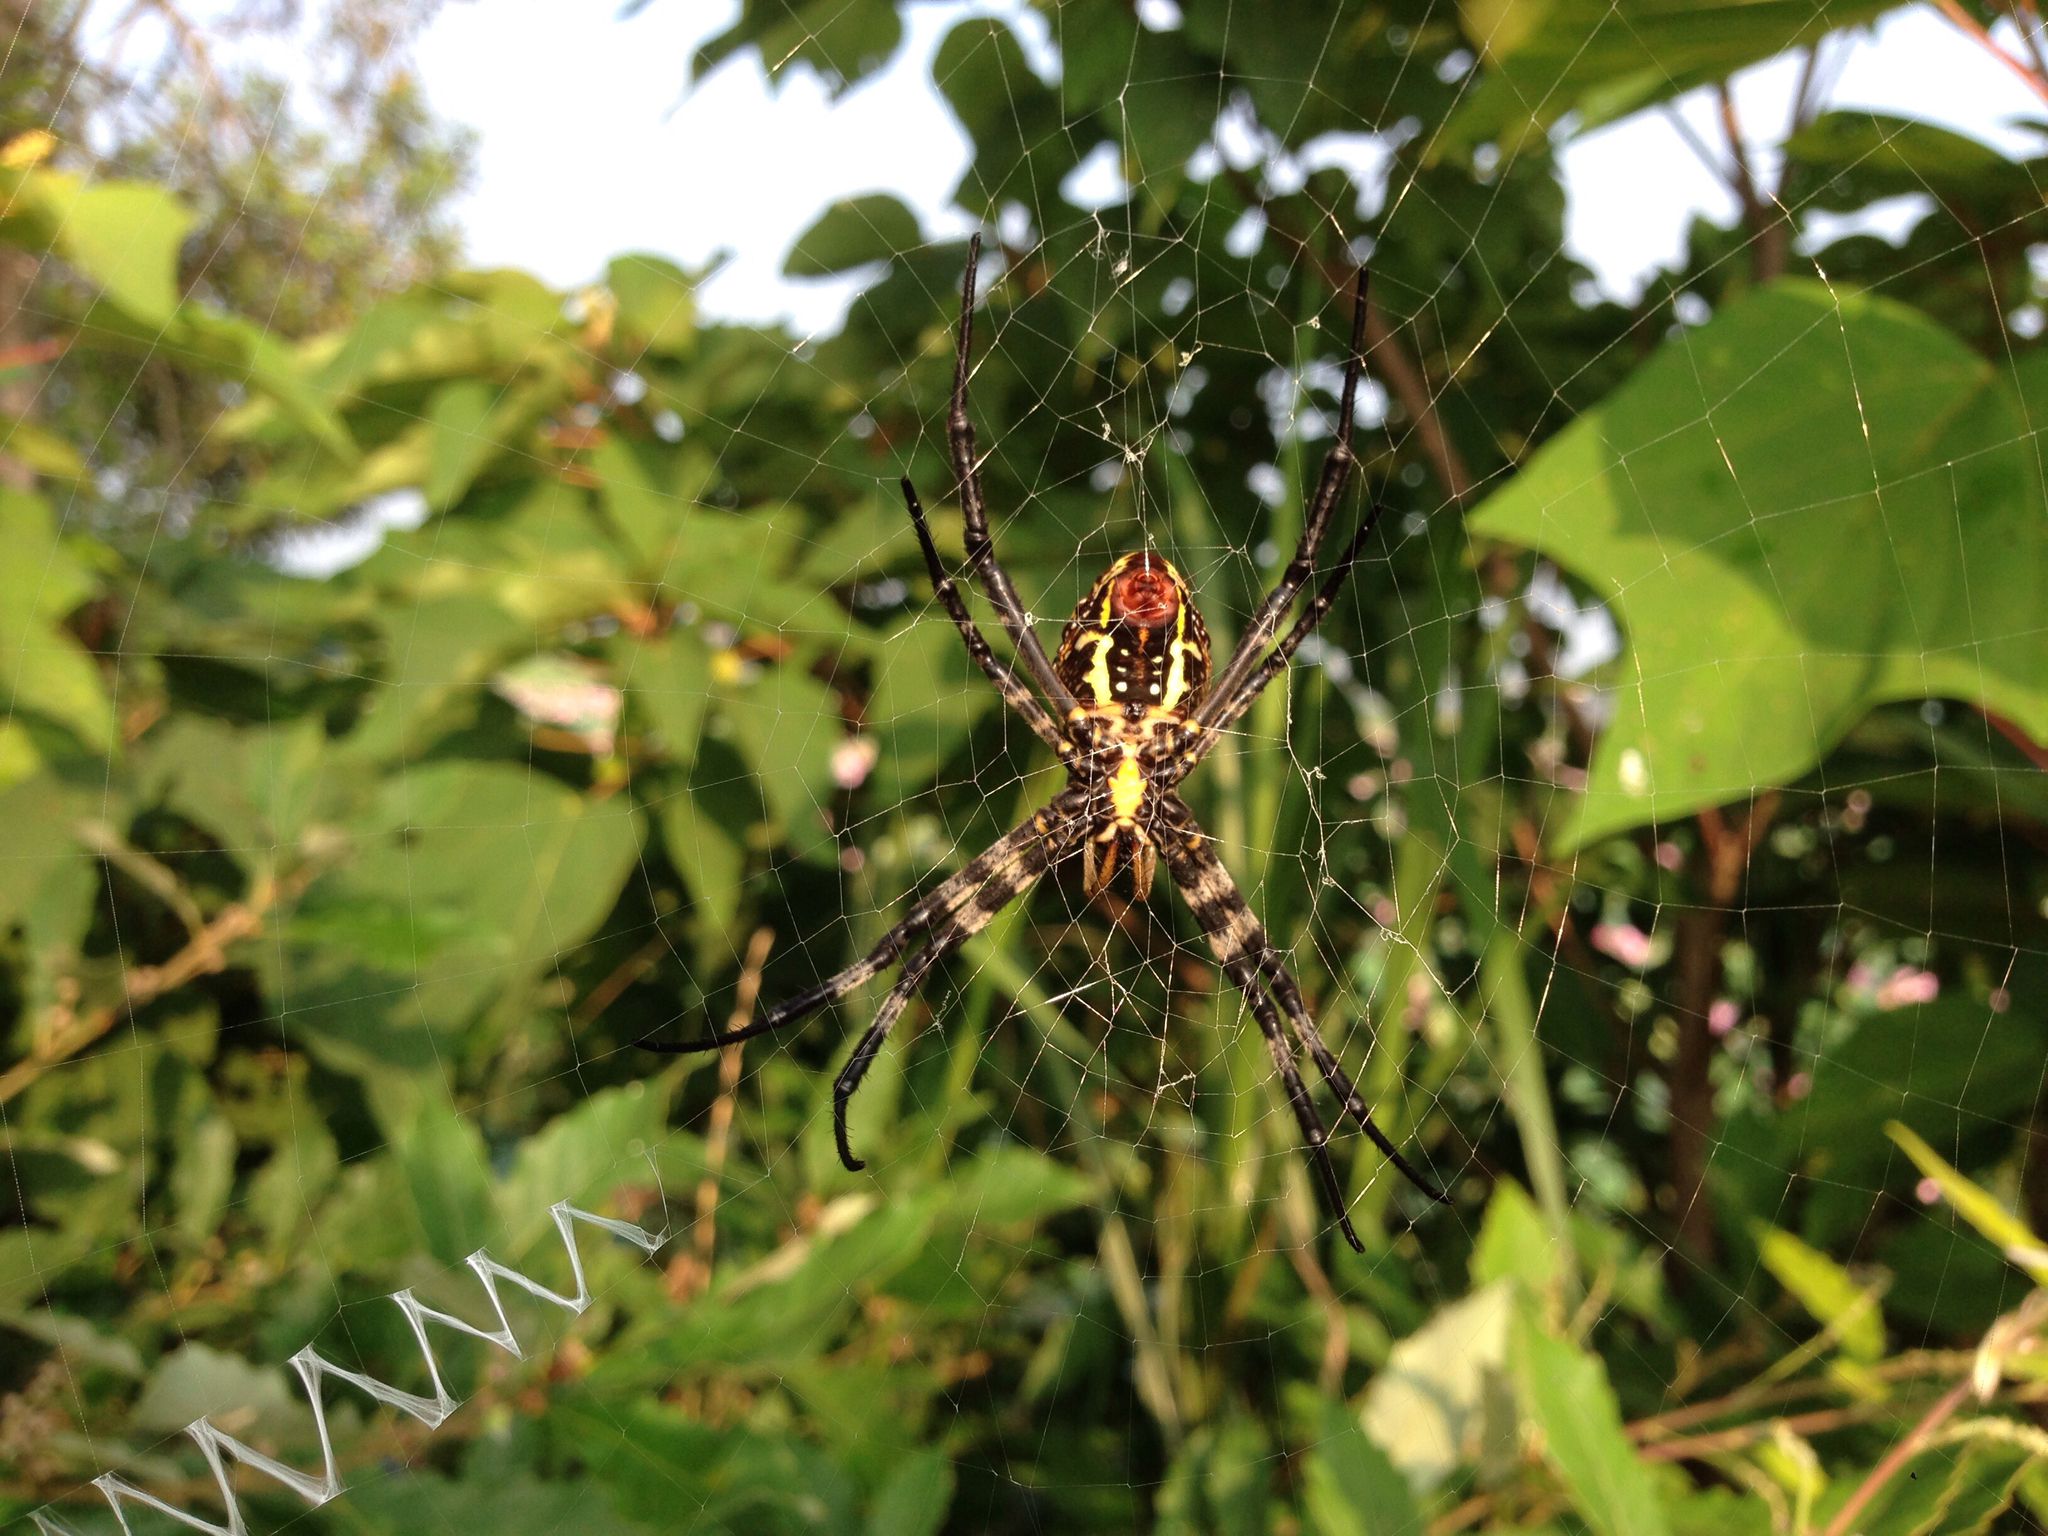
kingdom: Animalia
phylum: Arthropoda
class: Arachnida
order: Araneae
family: Araneidae
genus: Argiope
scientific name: Argiope bruennichi
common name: Wasp spider
